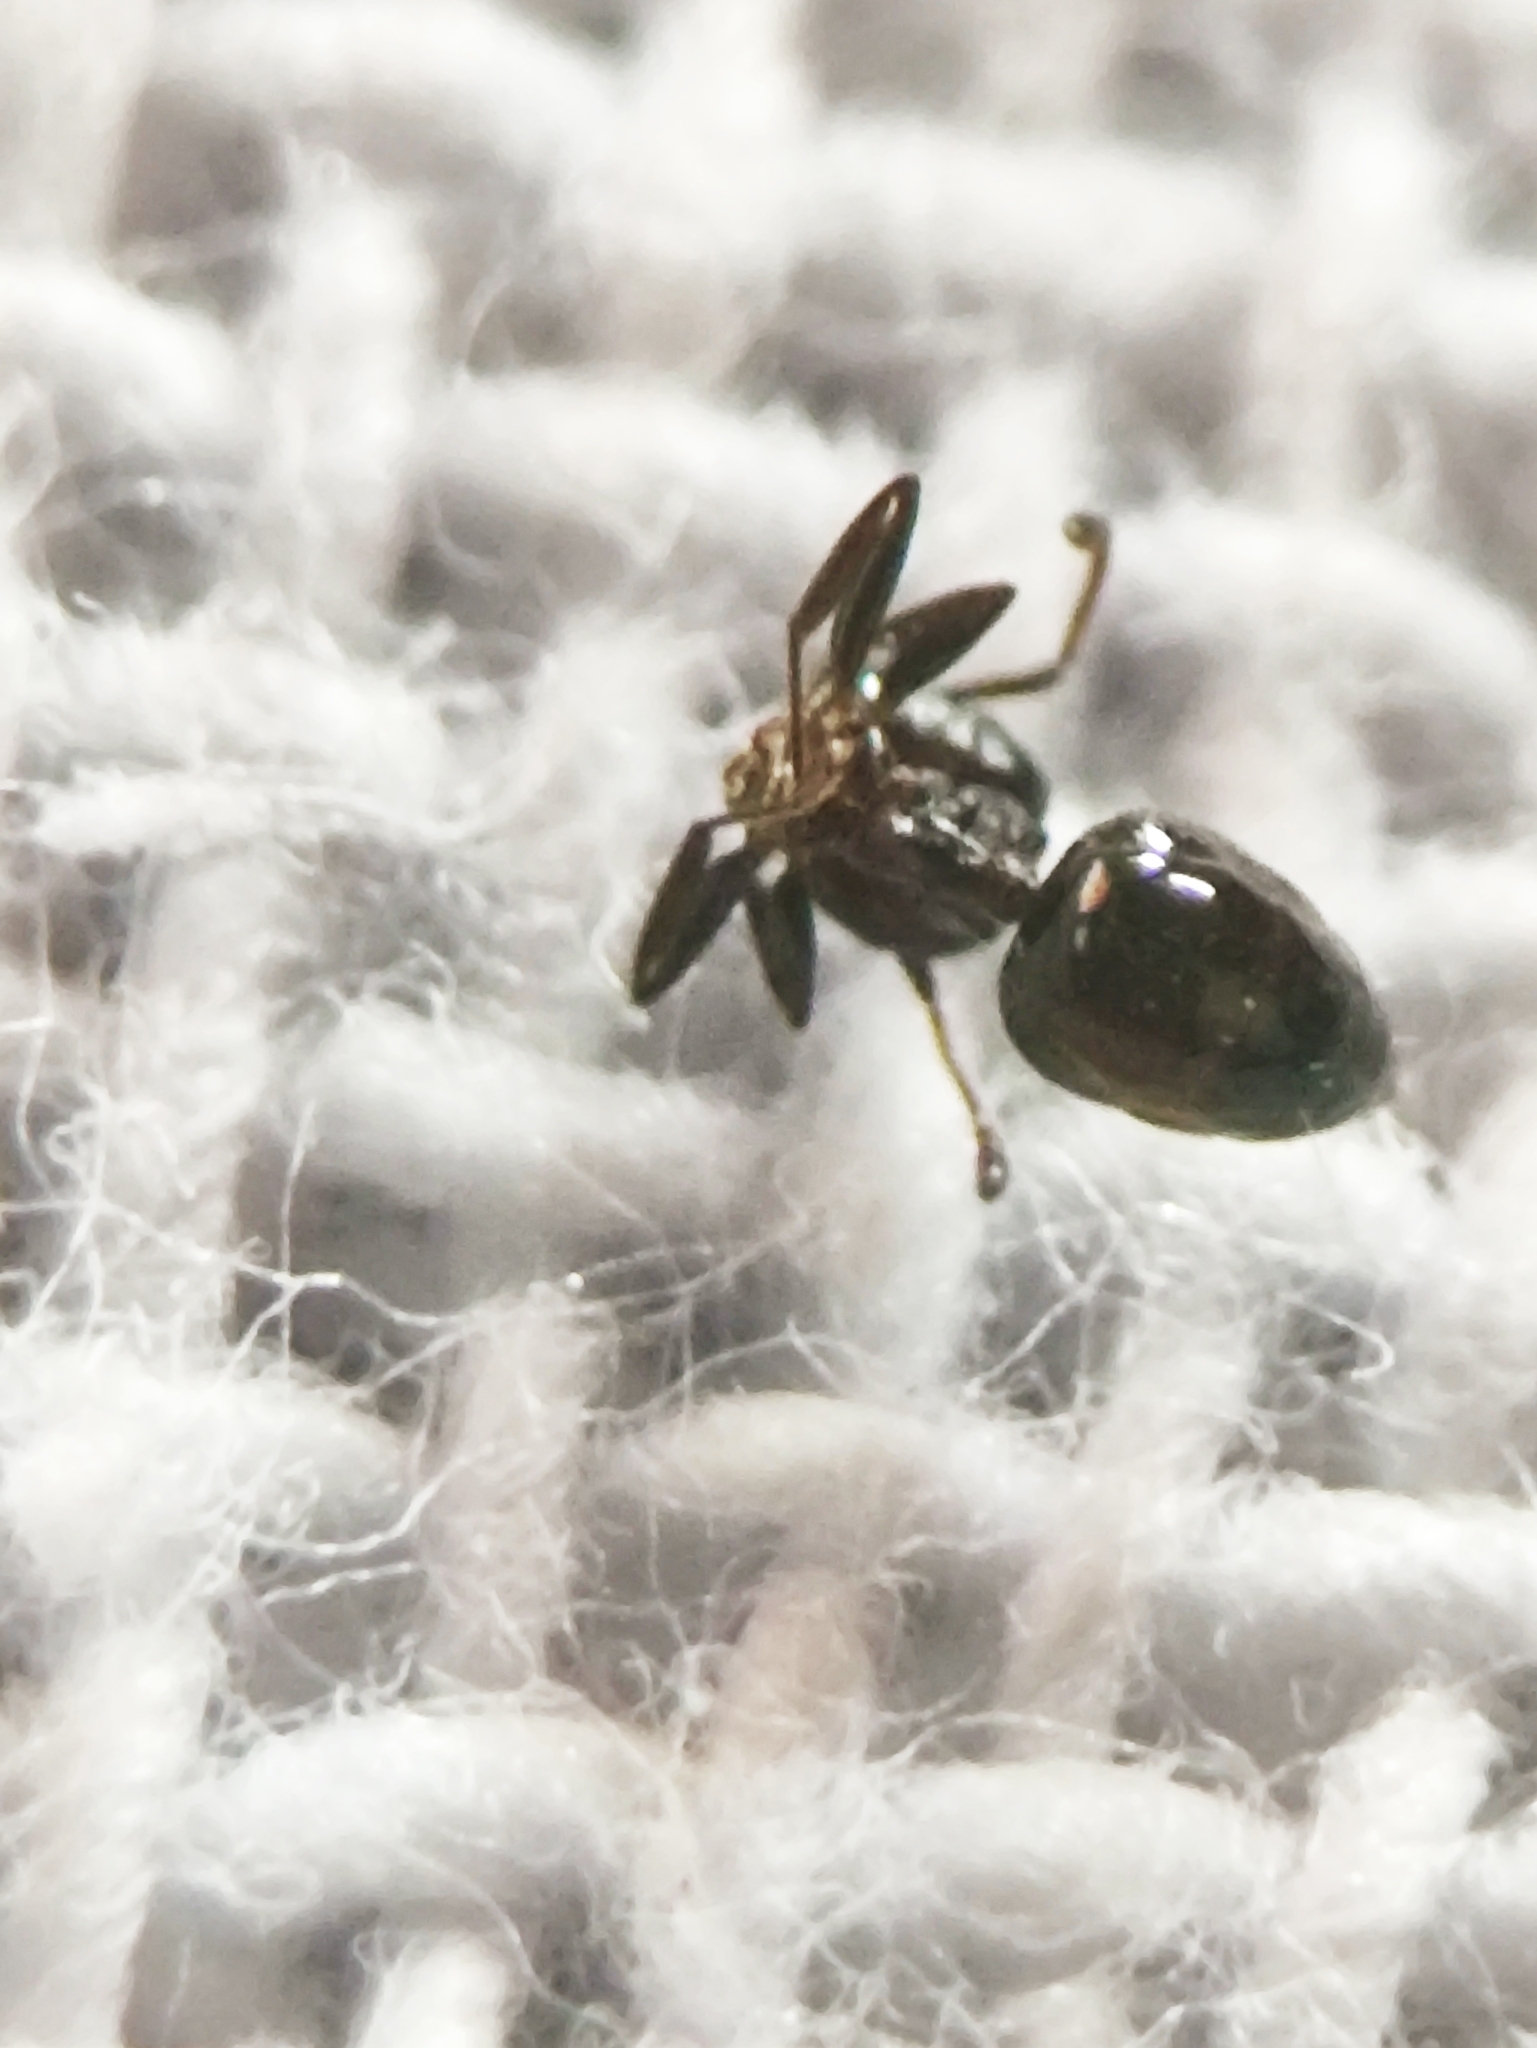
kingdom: Animalia
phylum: Arthropoda
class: Insecta
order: Hymenoptera
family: Formicidae
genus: Crematogaster
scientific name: Crematogaster travancorensis
